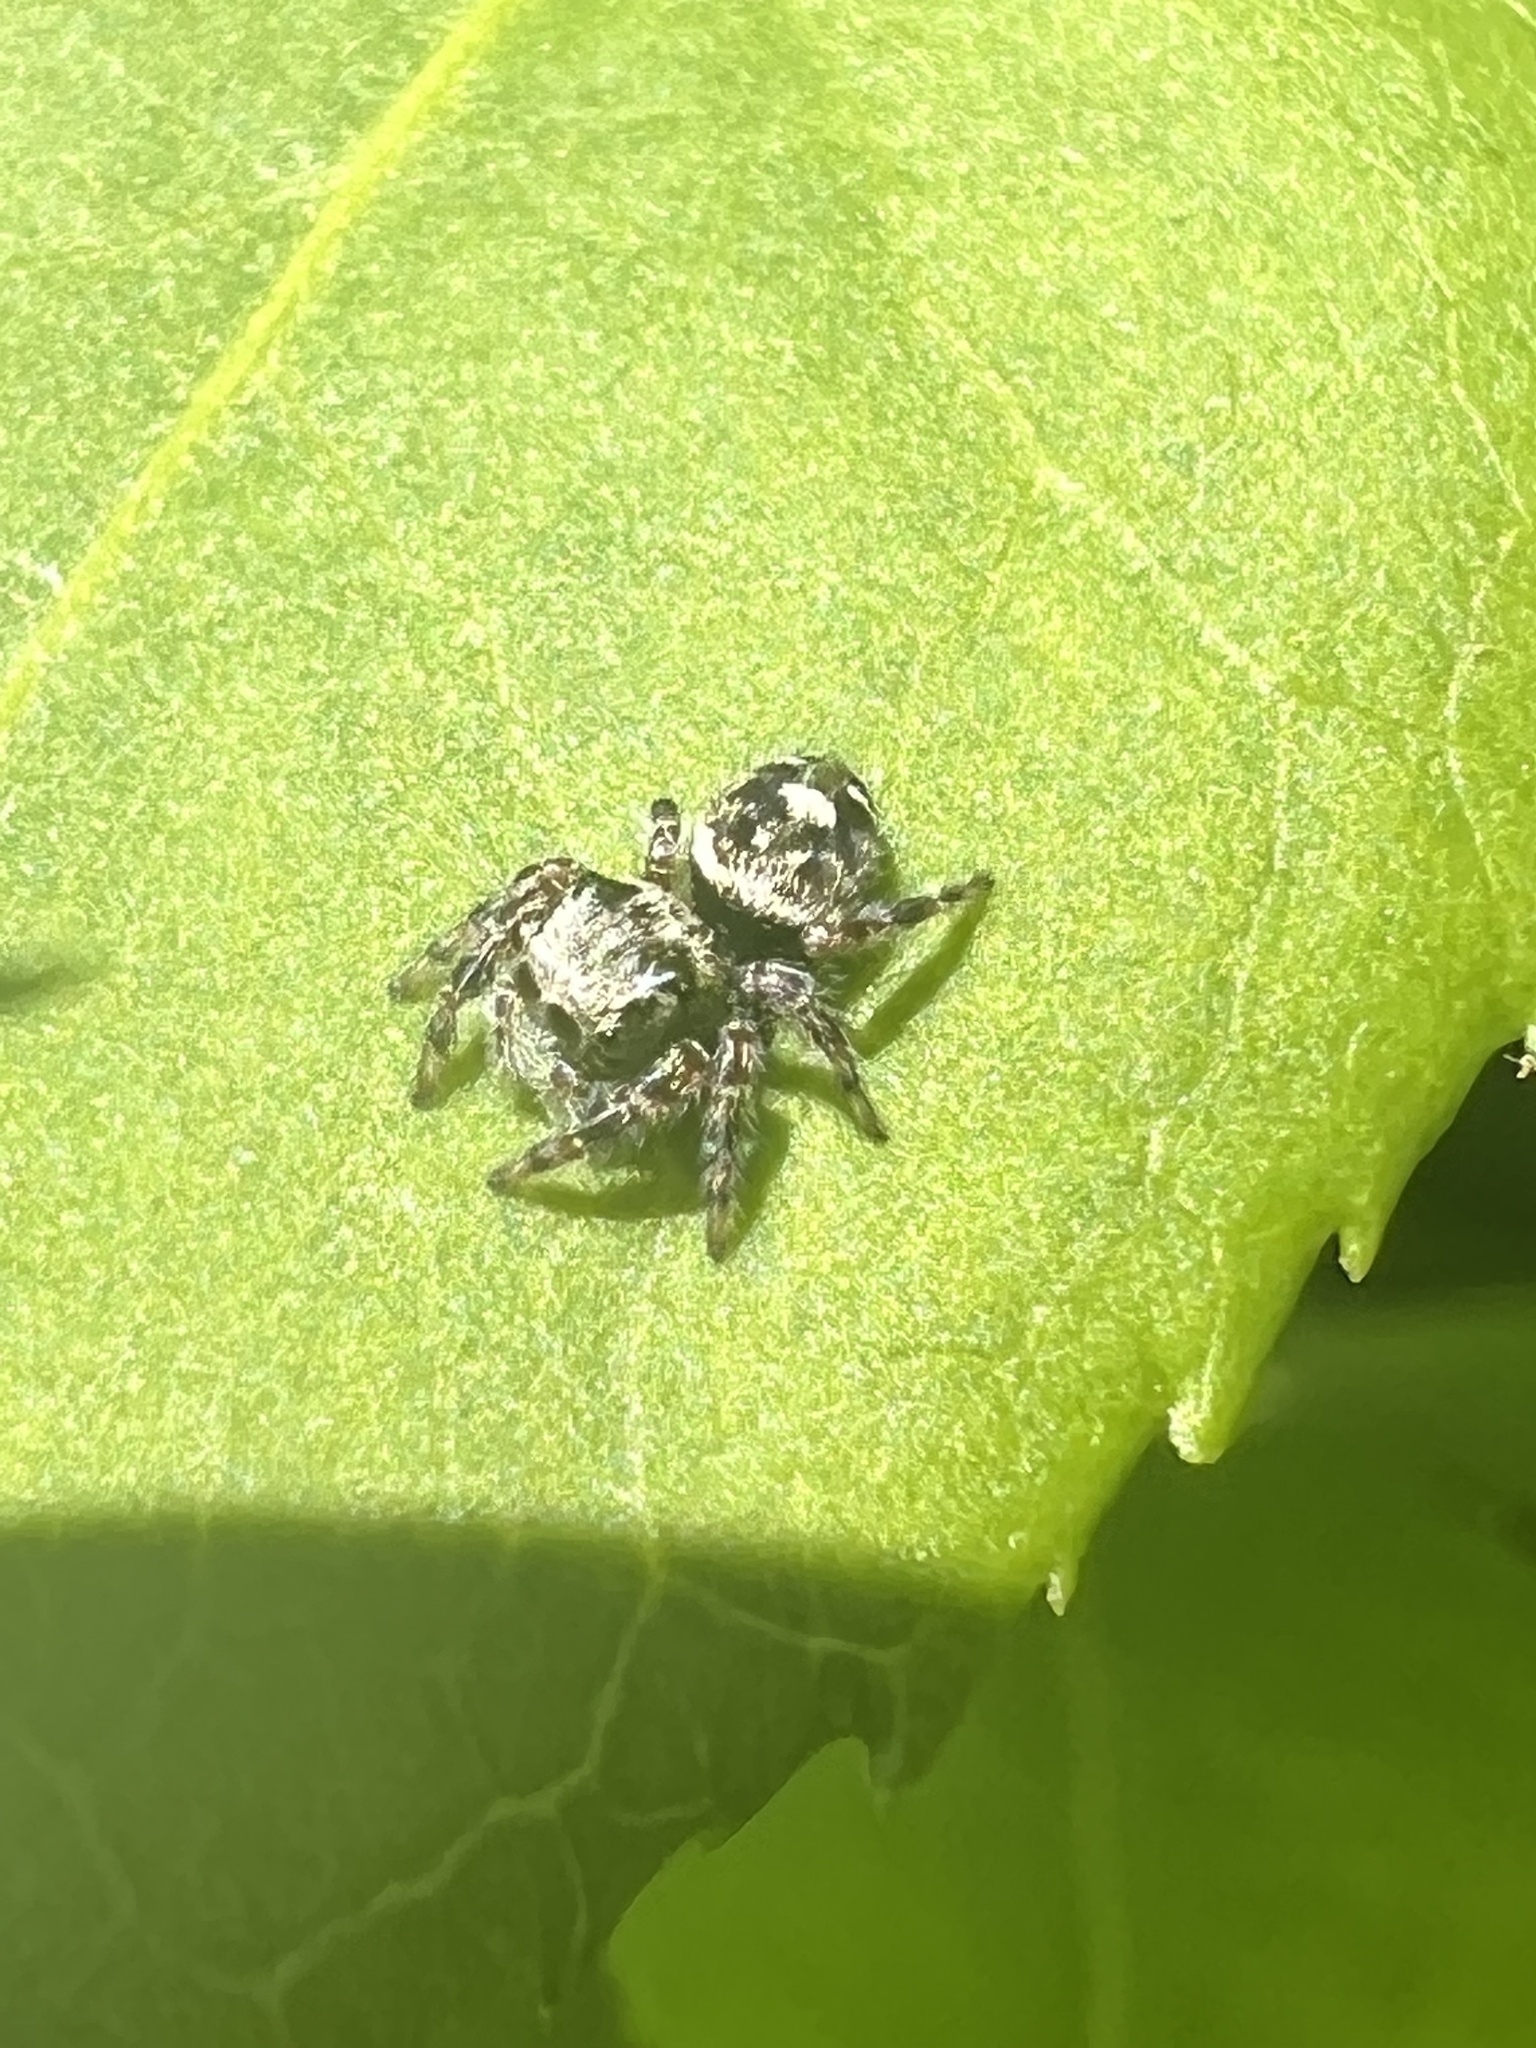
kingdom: Animalia
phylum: Arthropoda
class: Arachnida
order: Araneae
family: Salticidae
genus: Phidippus
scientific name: Phidippus putnami
